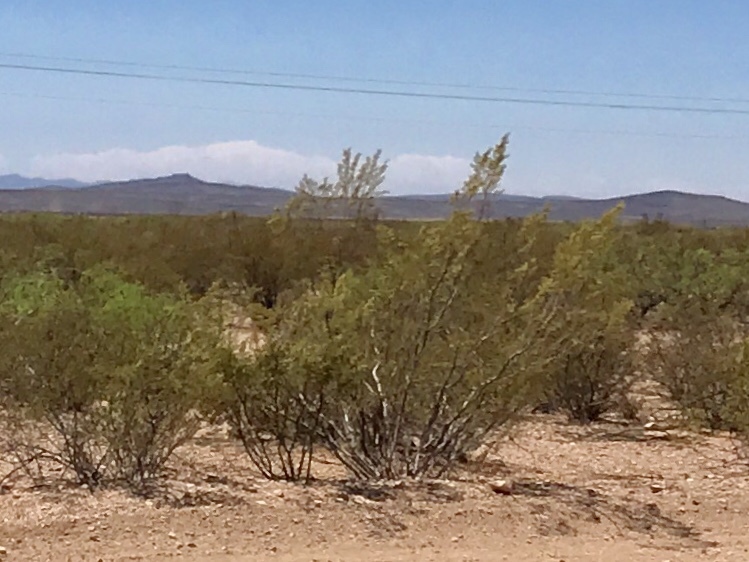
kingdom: Plantae
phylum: Tracheophyta
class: Magnoliopsida
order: Zygophyllales
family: Zygophyllaceae
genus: Larrea
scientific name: Larrea tridentata
